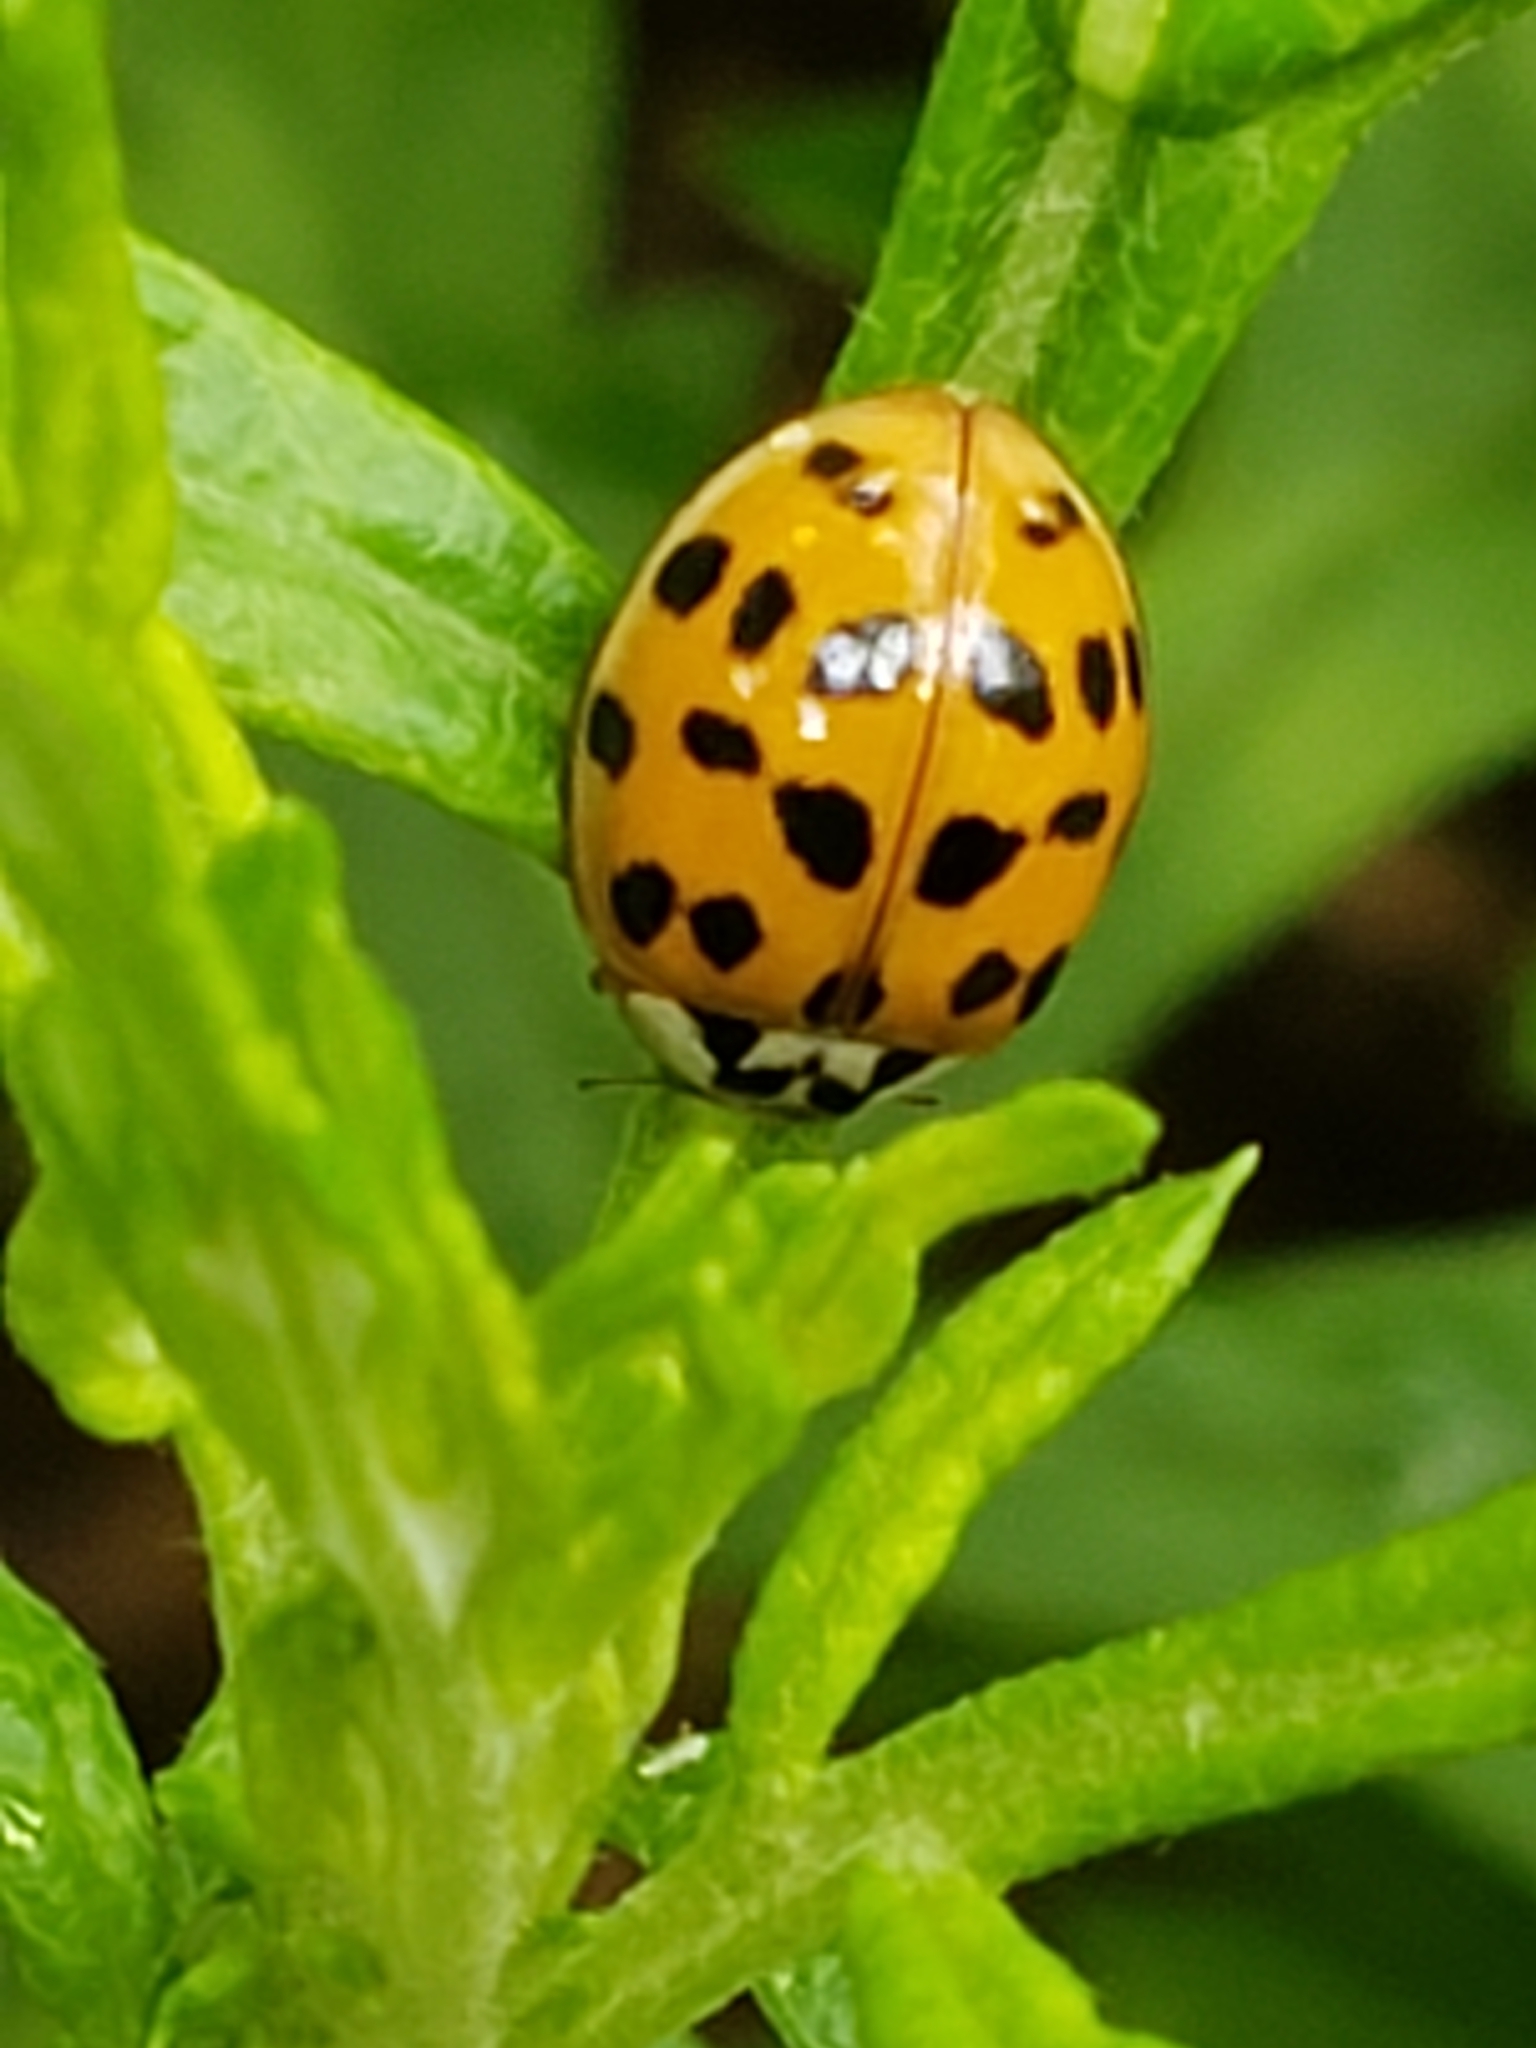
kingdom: Animalia
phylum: Arthropoda
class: Insecta
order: Coleoptera
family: Coccinellidae
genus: Harmonia
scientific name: Harmonia axyridis
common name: Harlequin ladybird
